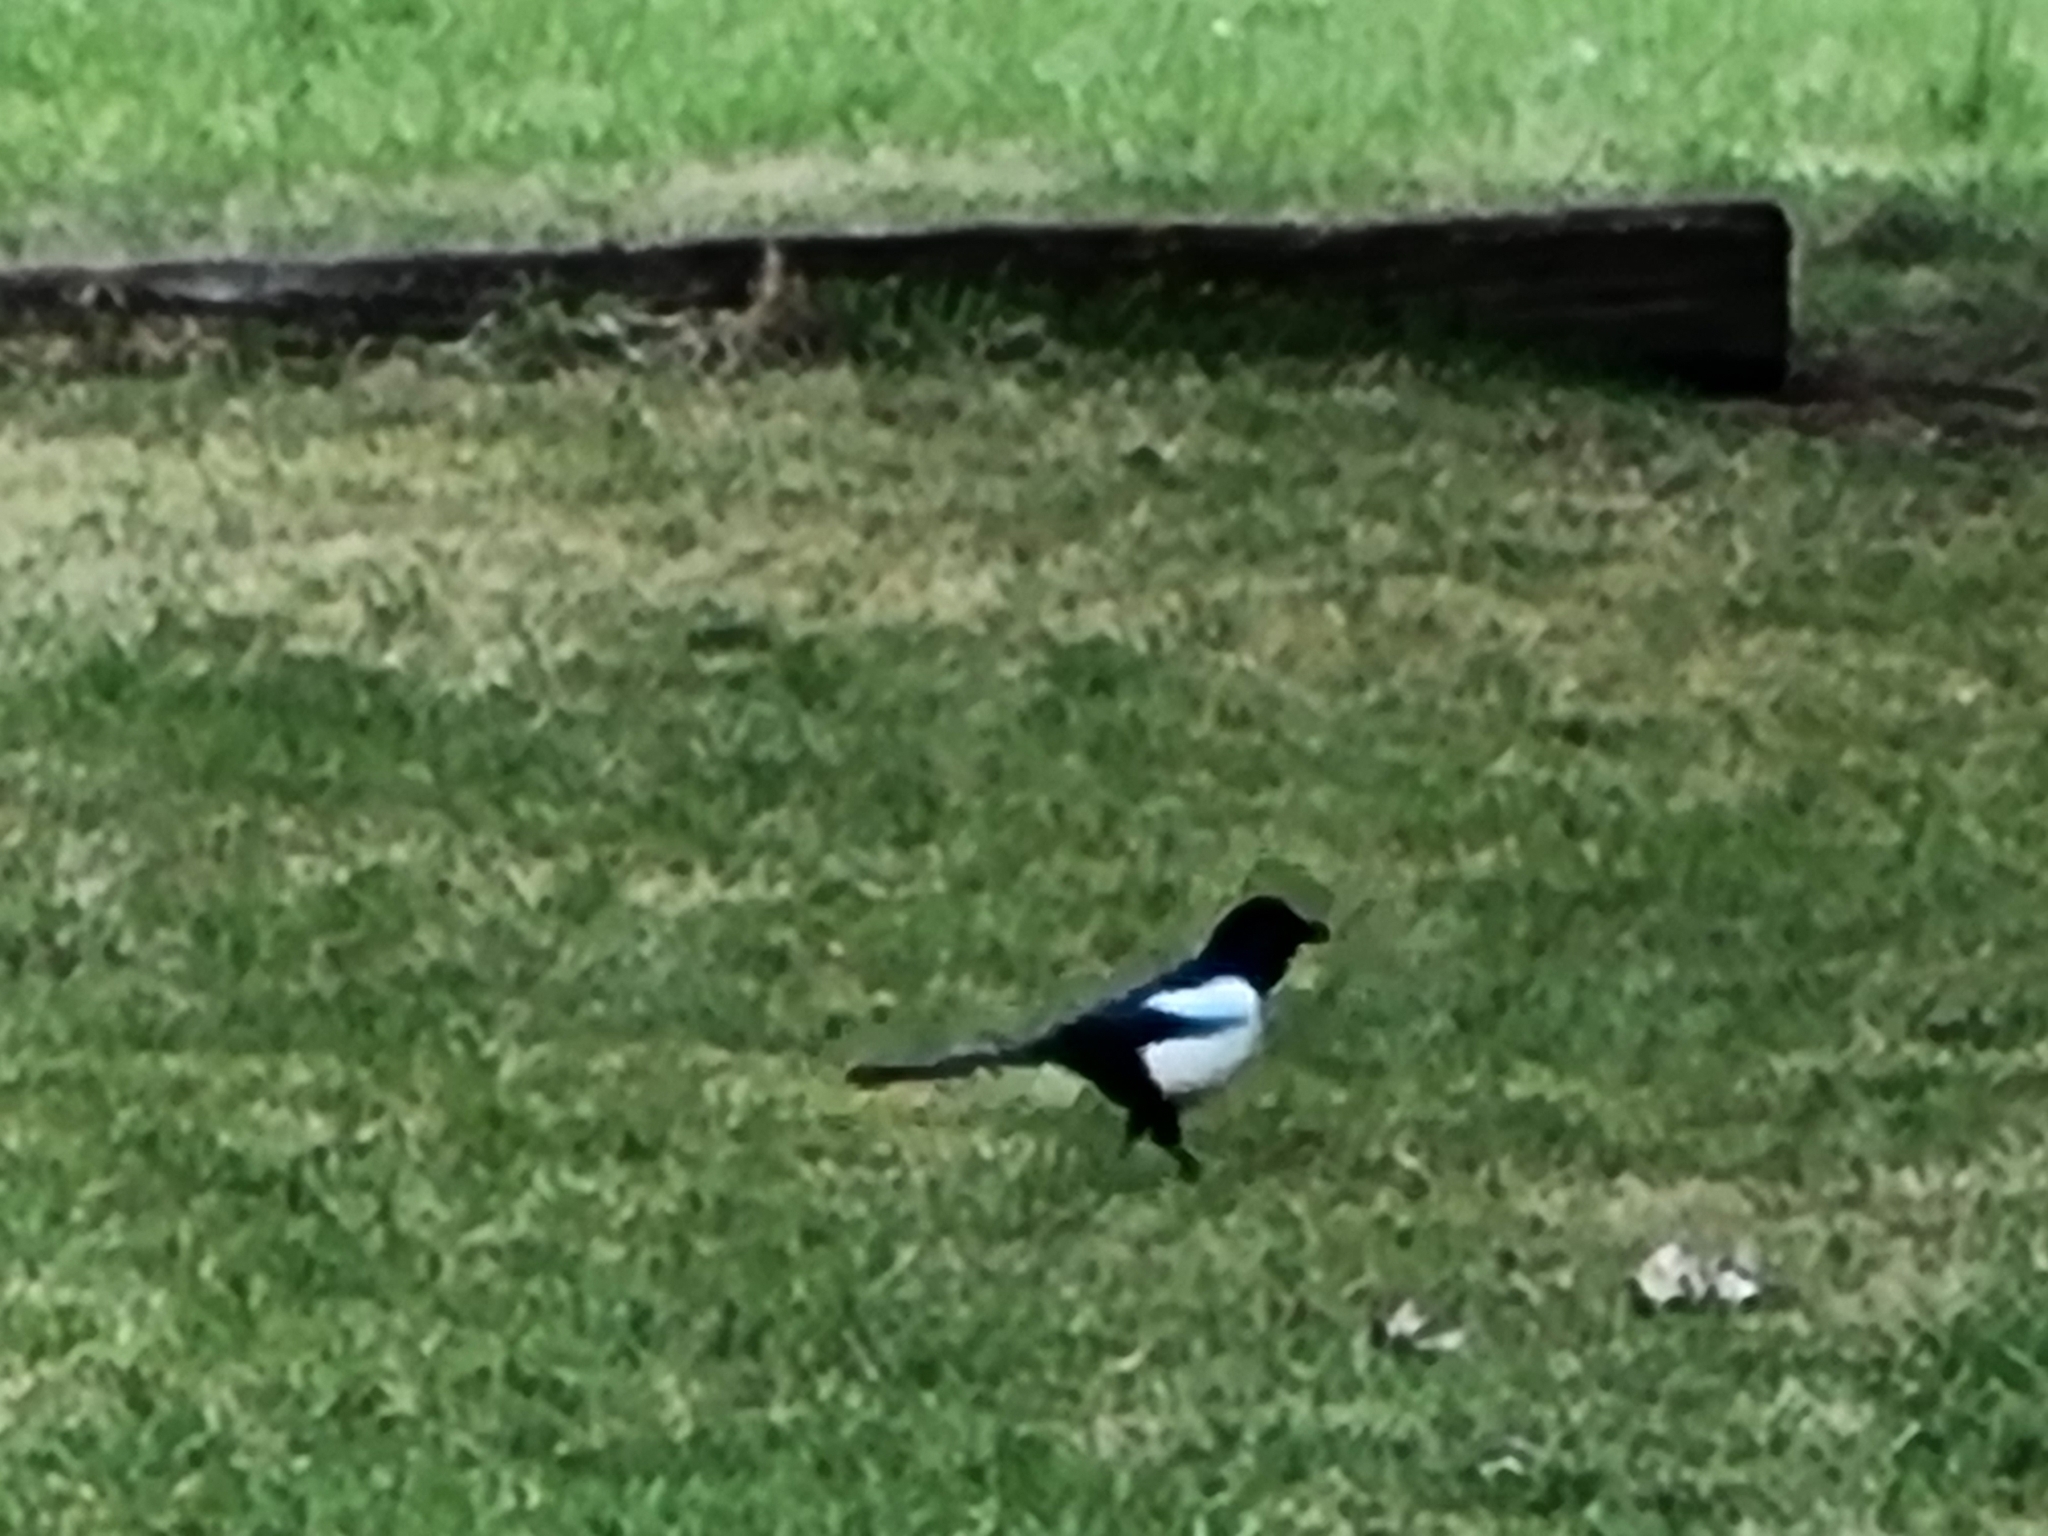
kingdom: Animalia
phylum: Chordata
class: Aves
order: Passeriformes
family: Corvidae
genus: Pica
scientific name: Pica pica
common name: Eurasian magpie
